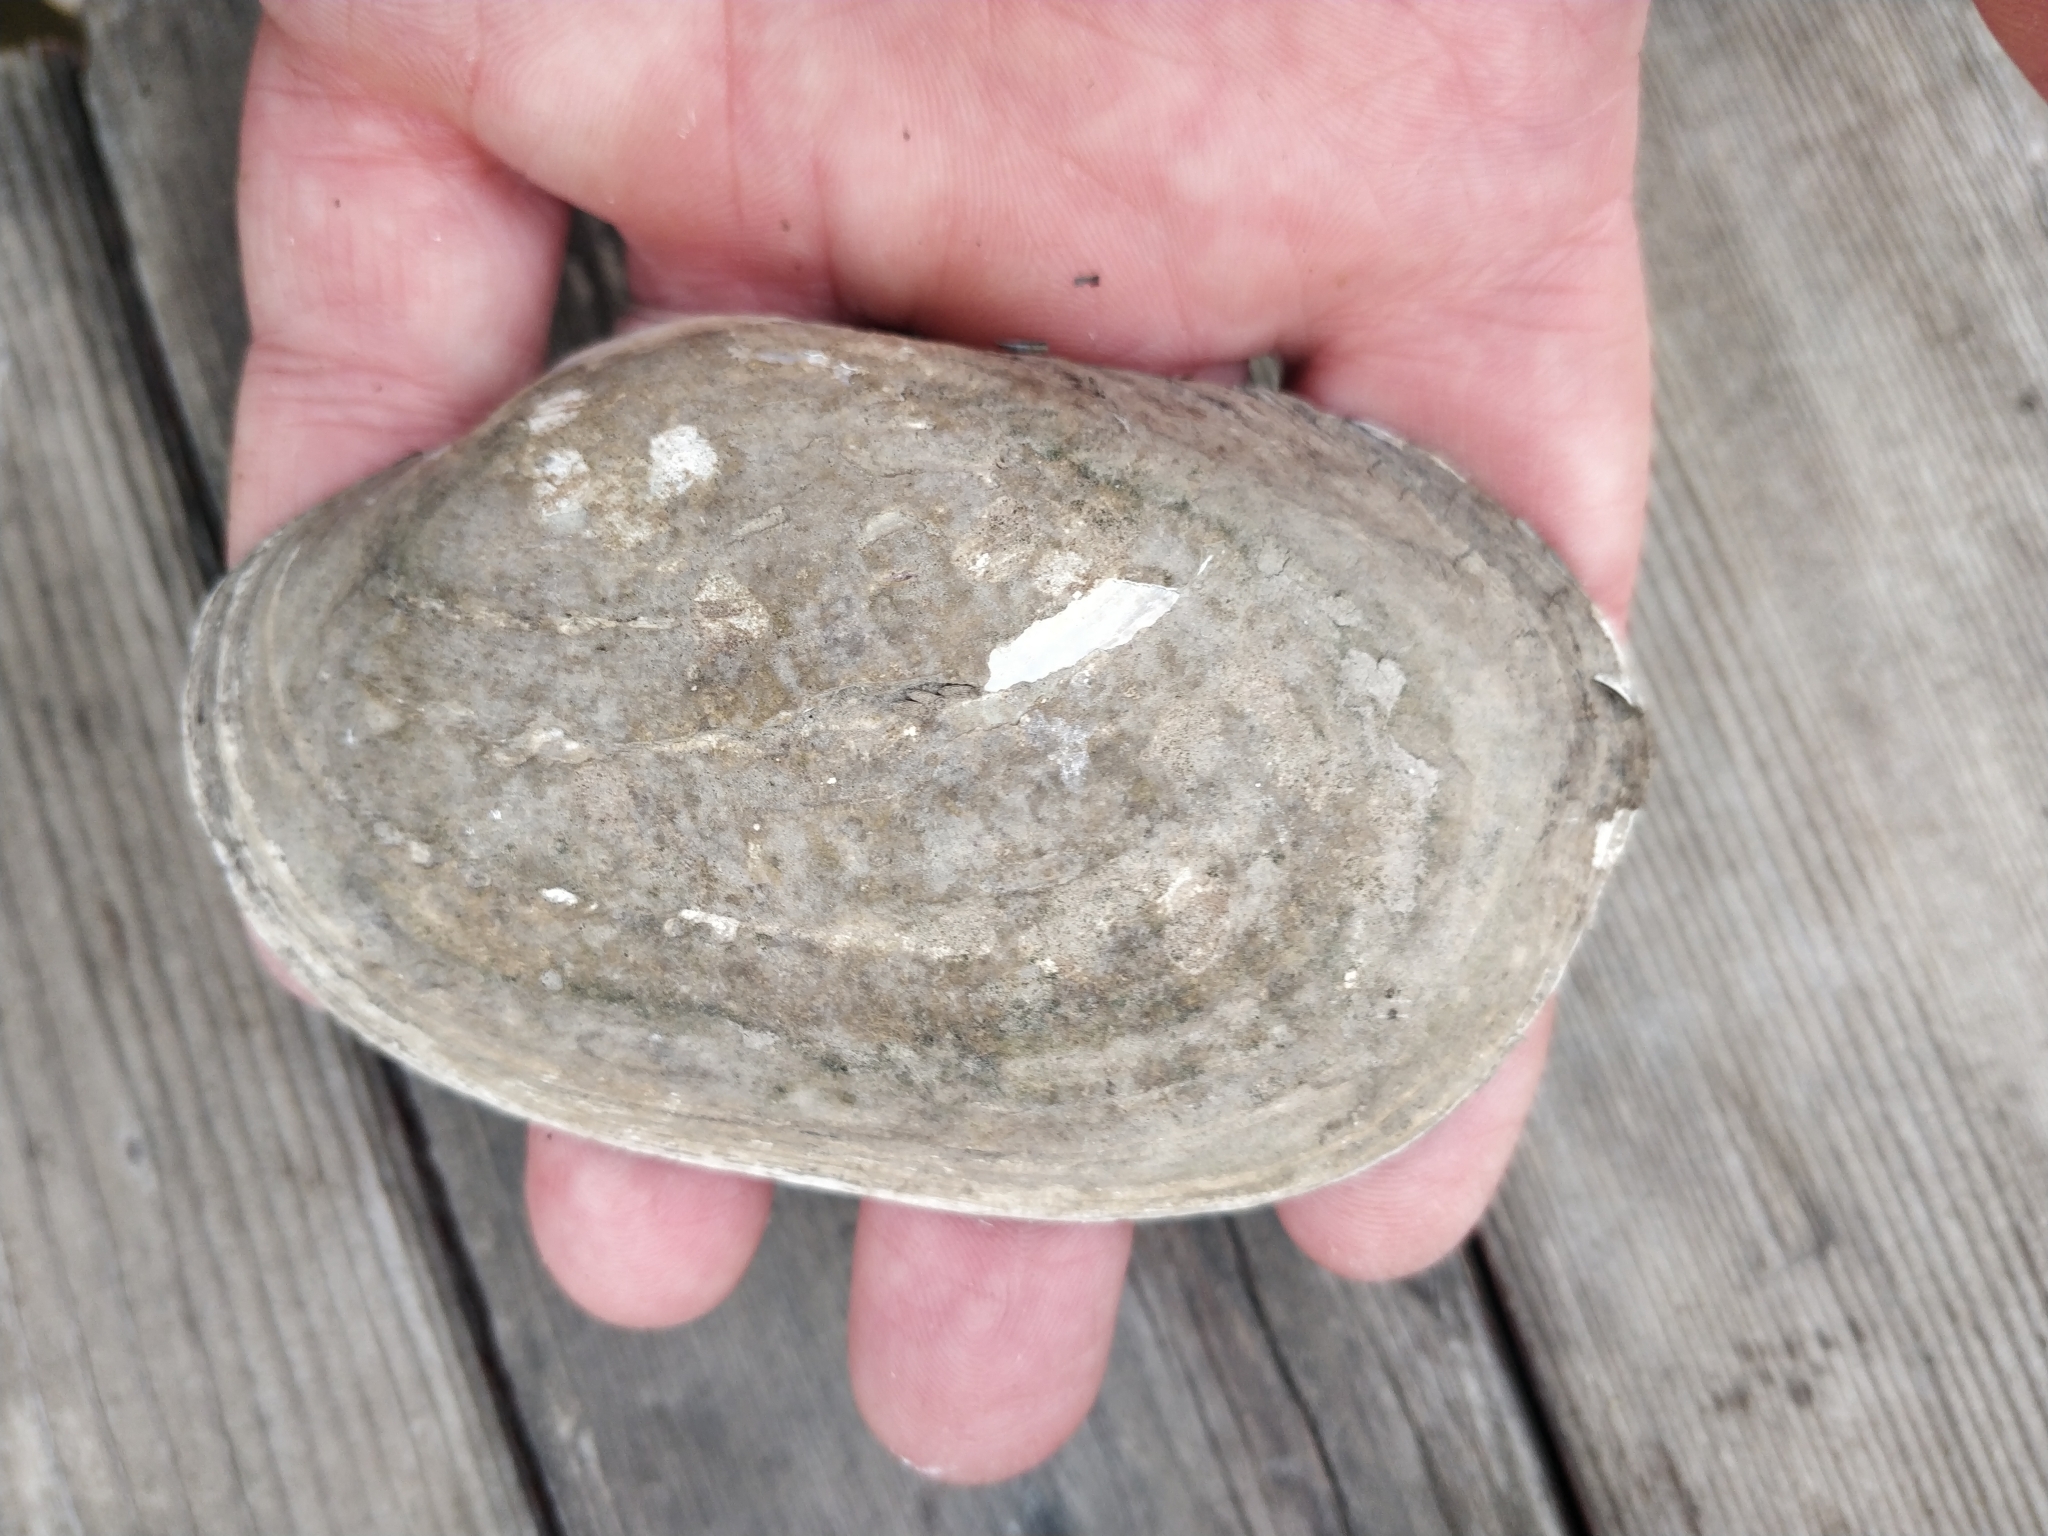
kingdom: Animalia
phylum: Mollusca
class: Bivalvia
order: Unionida
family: Unionidae
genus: Lampsilis
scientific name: Lampsilis siliquoidea
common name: Fatmucket
